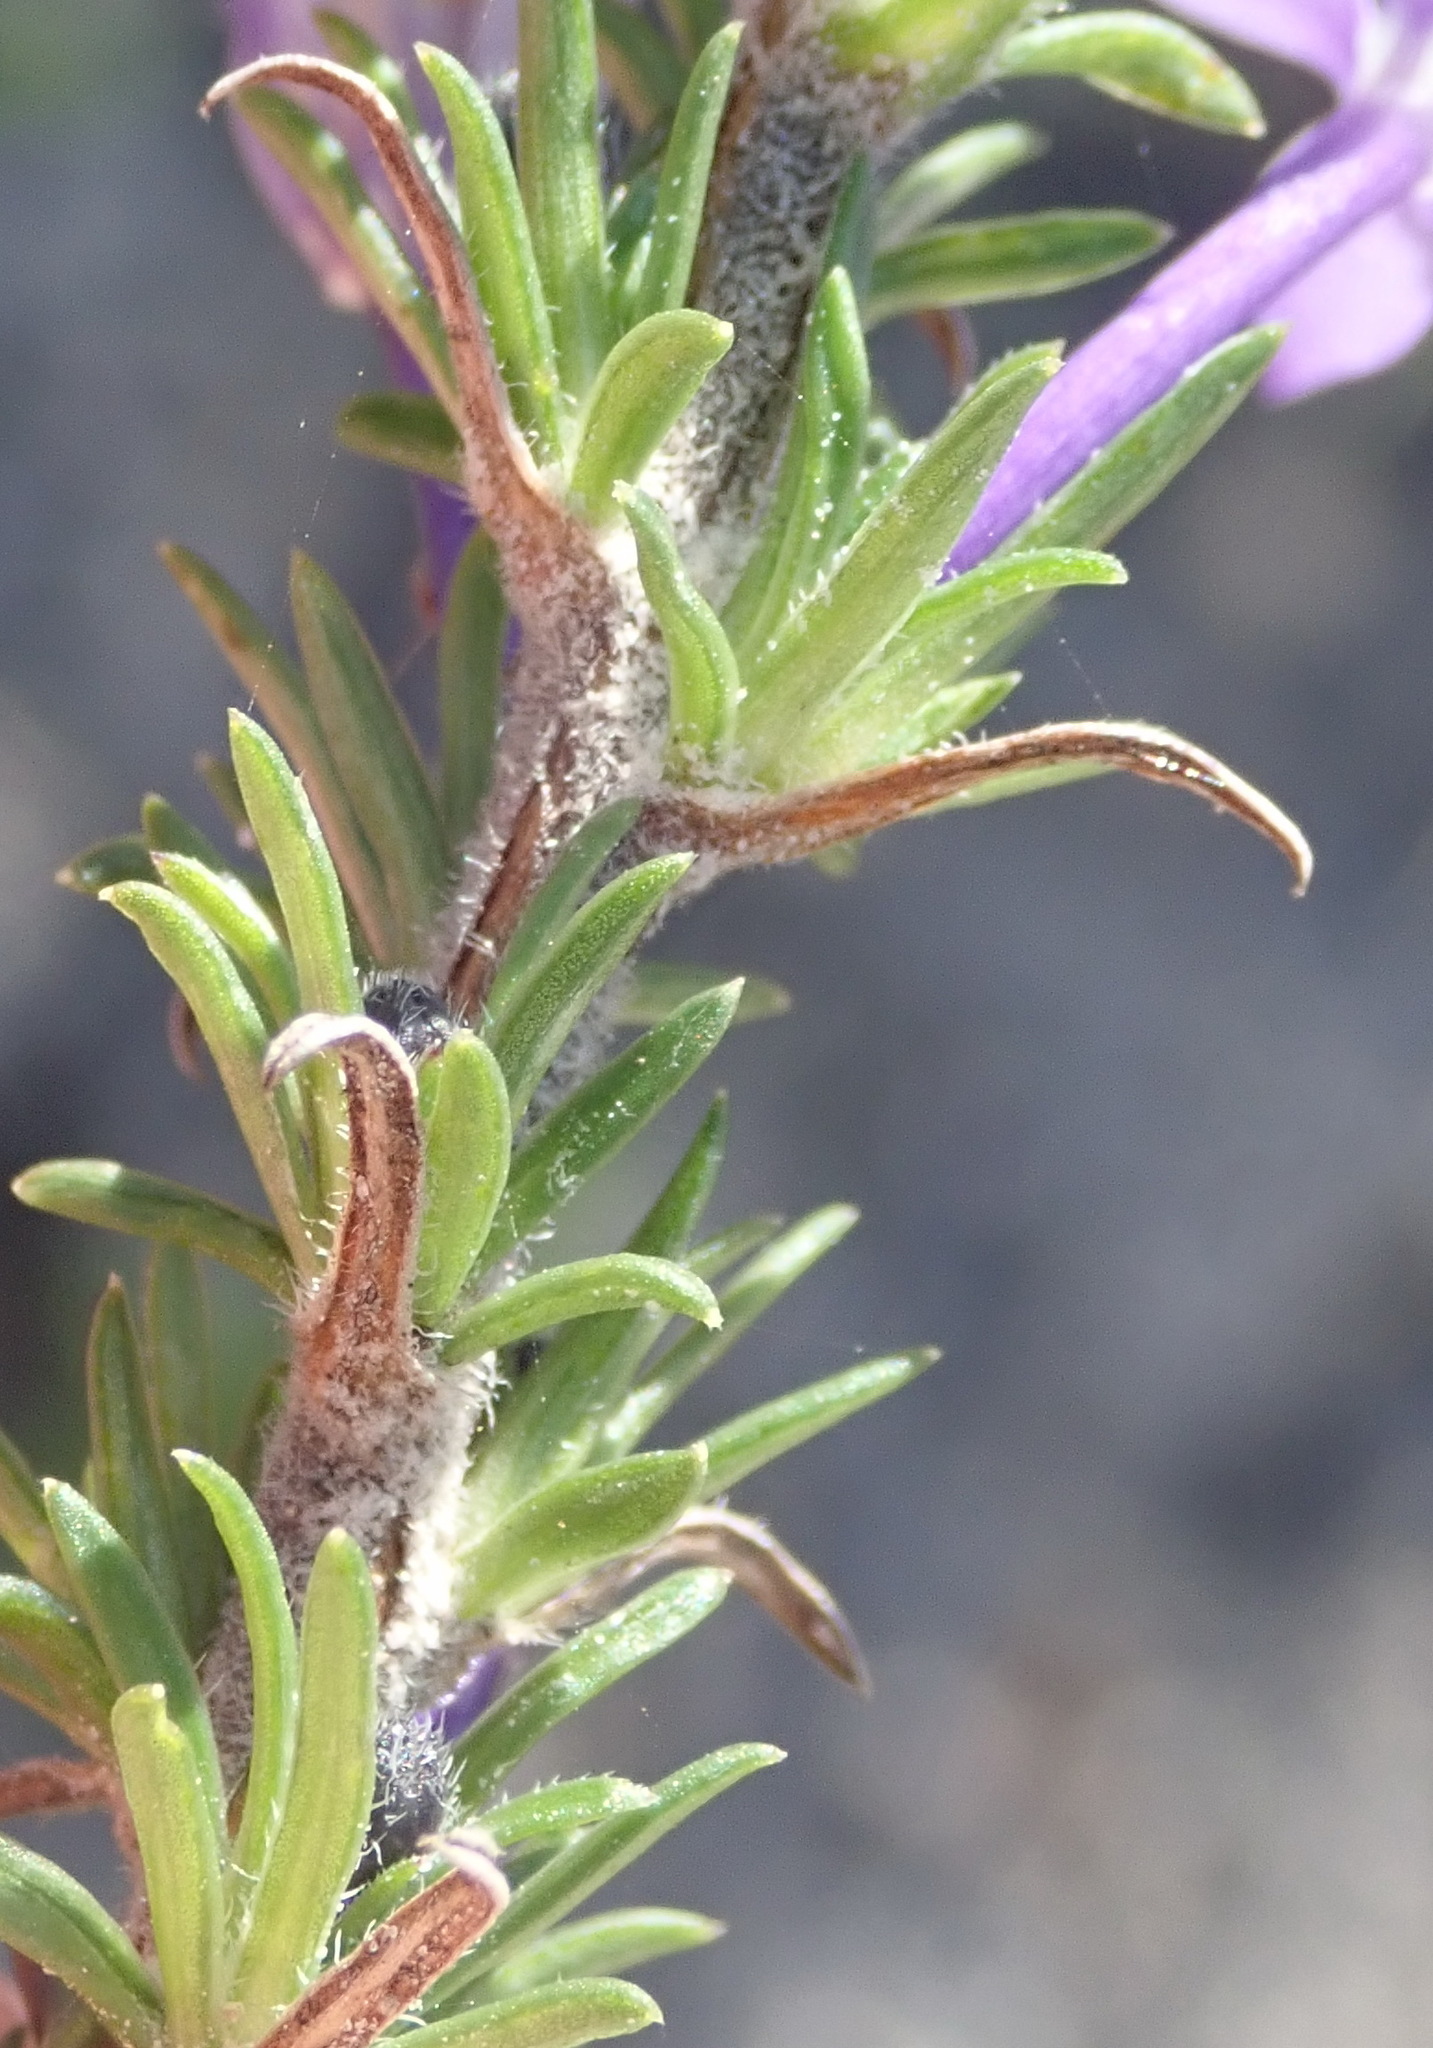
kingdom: Plantae
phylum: Tracheophyta
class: Magnoliopsida
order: Asterales
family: Campanulaceae
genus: Theilera
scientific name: Theilera guthriei
